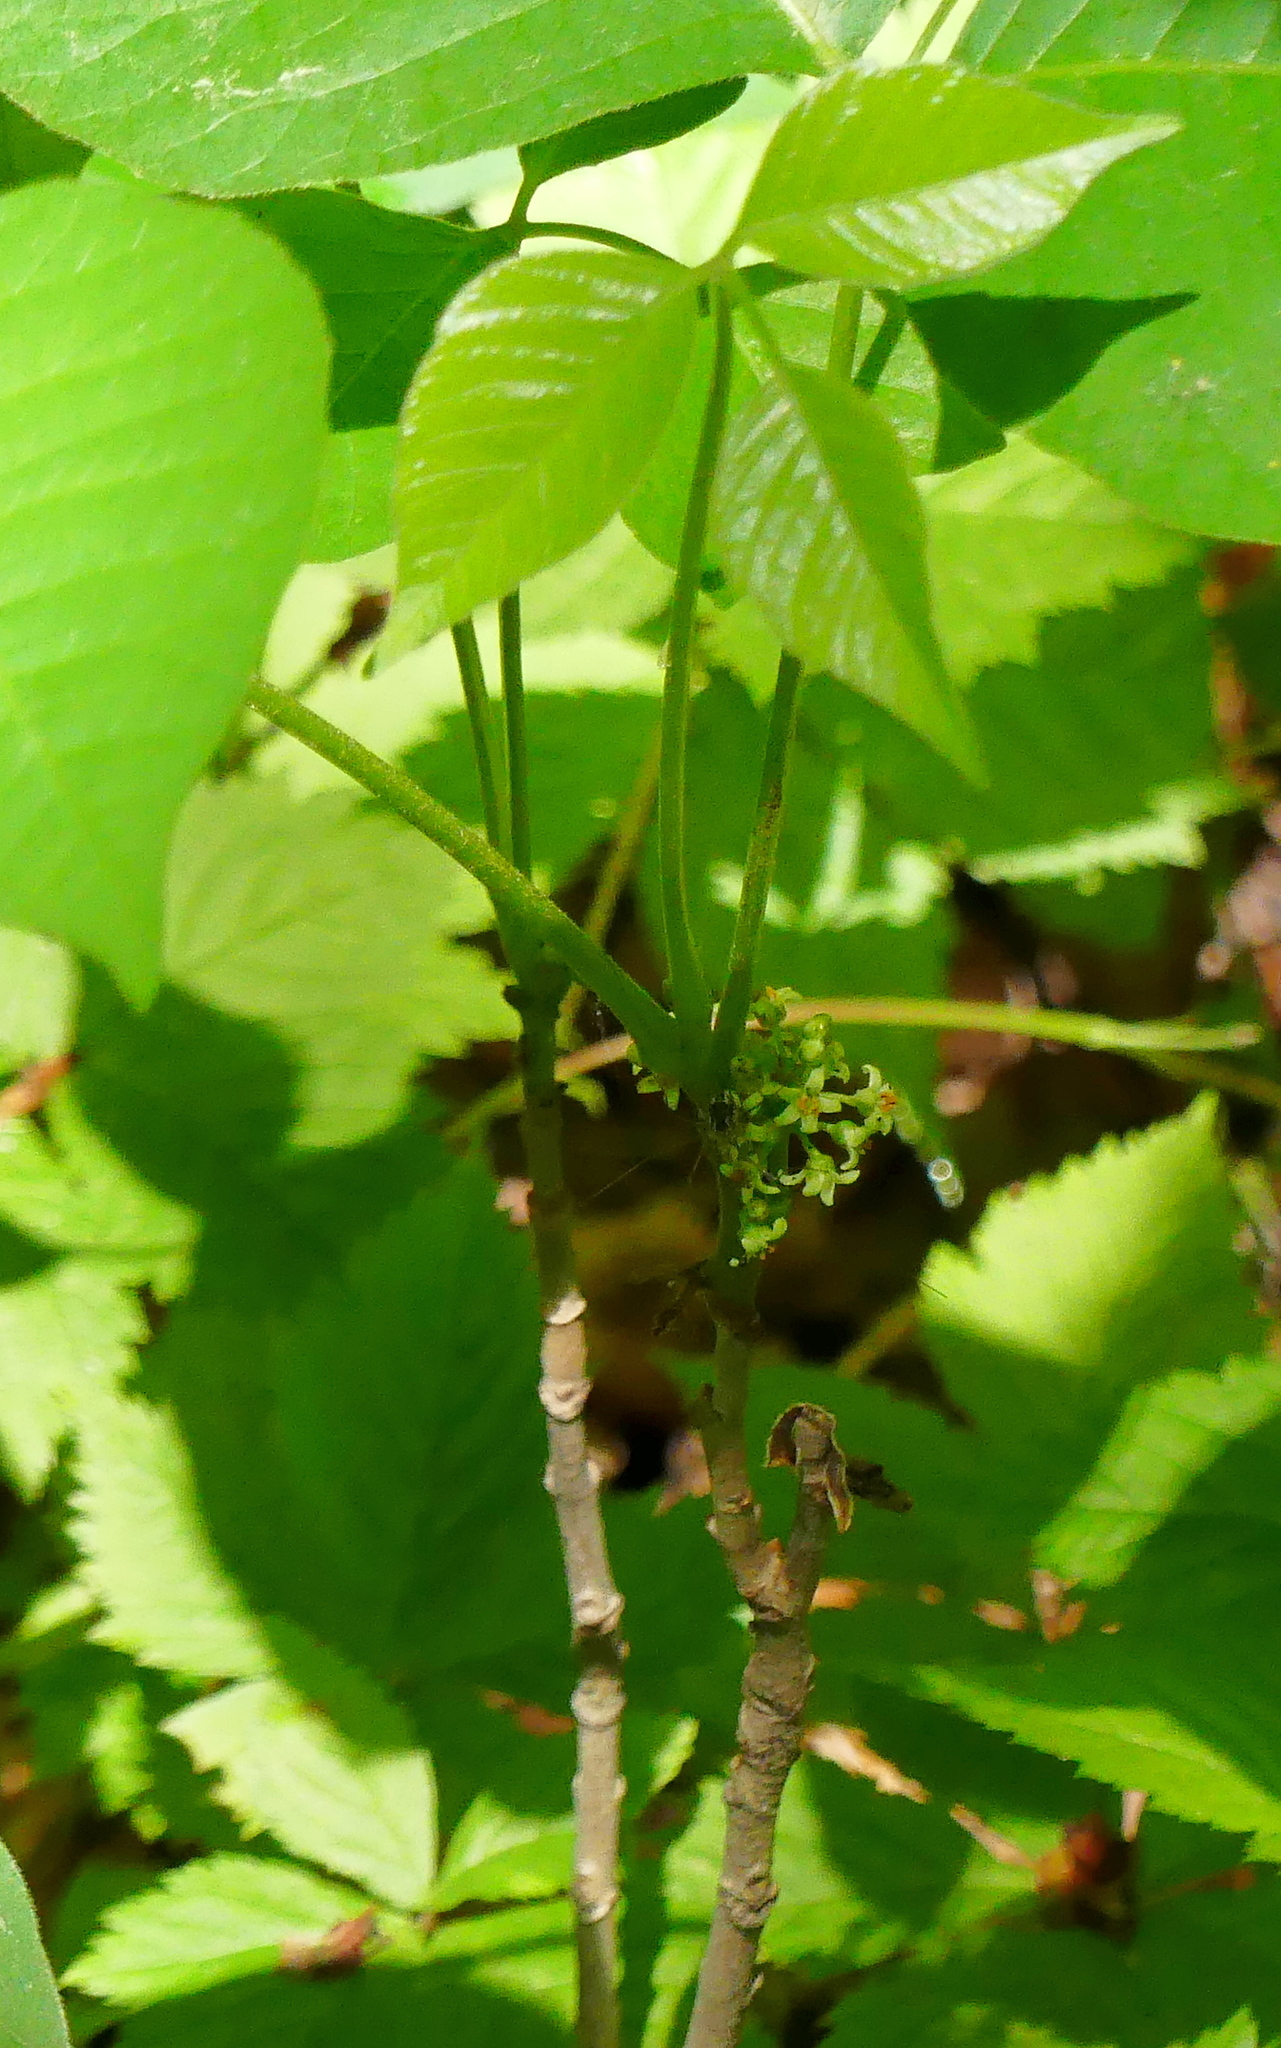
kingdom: Plantae
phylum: Tracheophyta
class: Magnoliopsida
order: Sapindales
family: Anacardiaceae
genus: Toxicodendron
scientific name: Toxicodendron rydbergii
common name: Rydberg's poison-ivy
